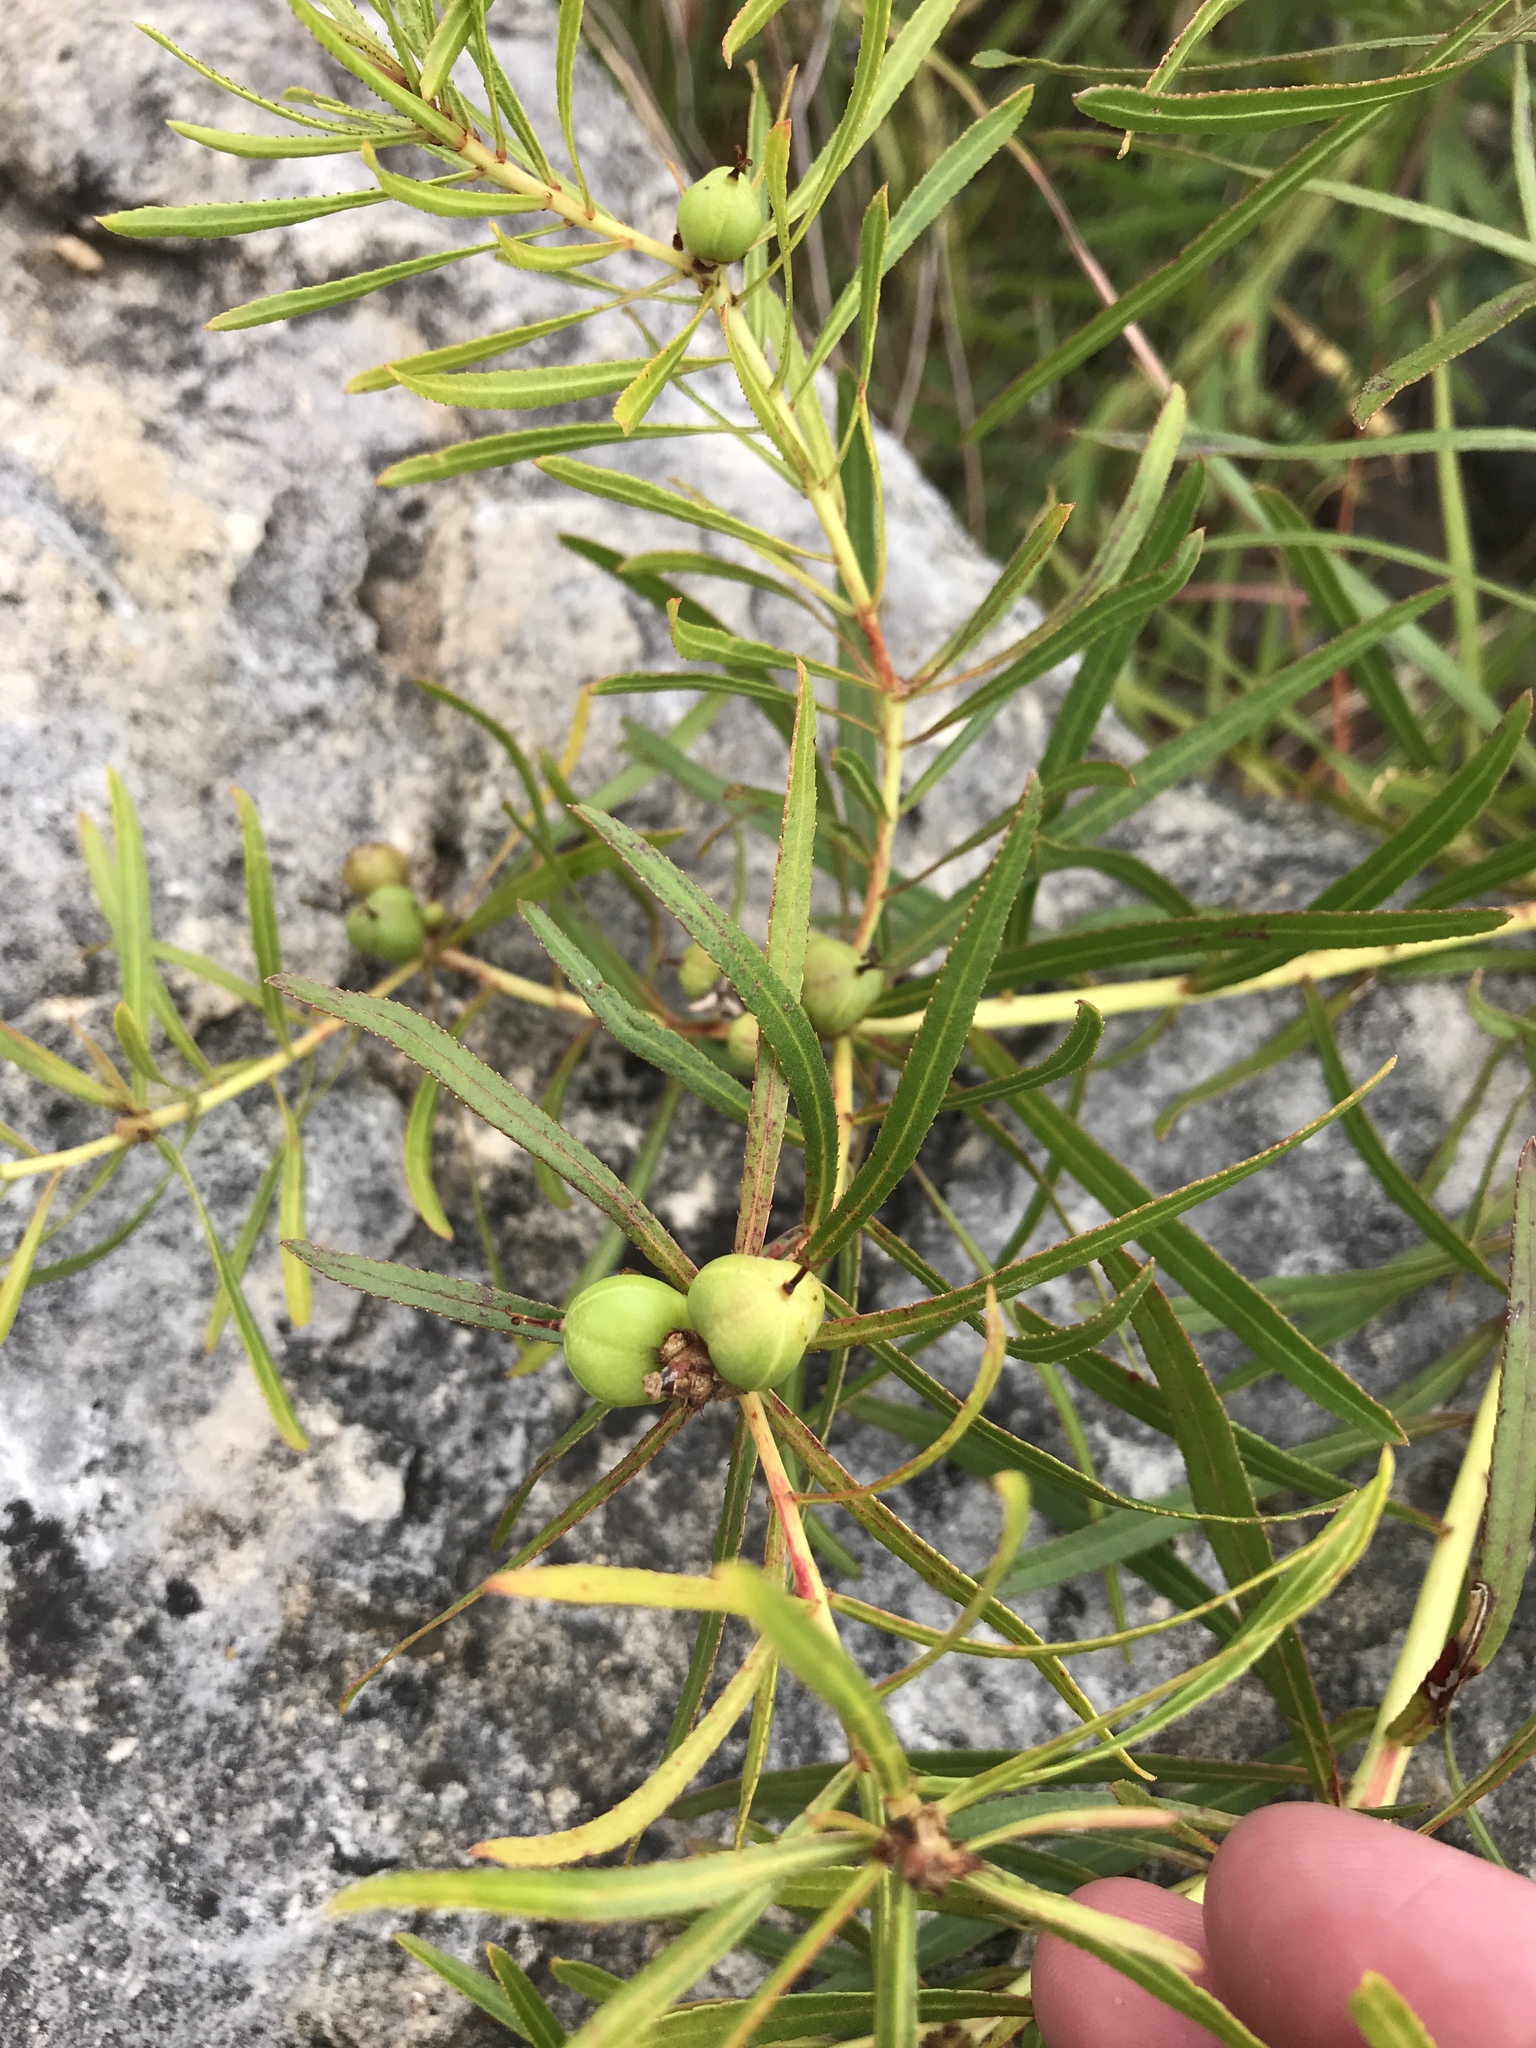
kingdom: Plantae
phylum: Tracheophyta
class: Magnoliopsida
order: Malpighiales
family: Euphorbiaceae
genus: Stillingia
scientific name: Stillingia texana
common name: Texas stillingia
